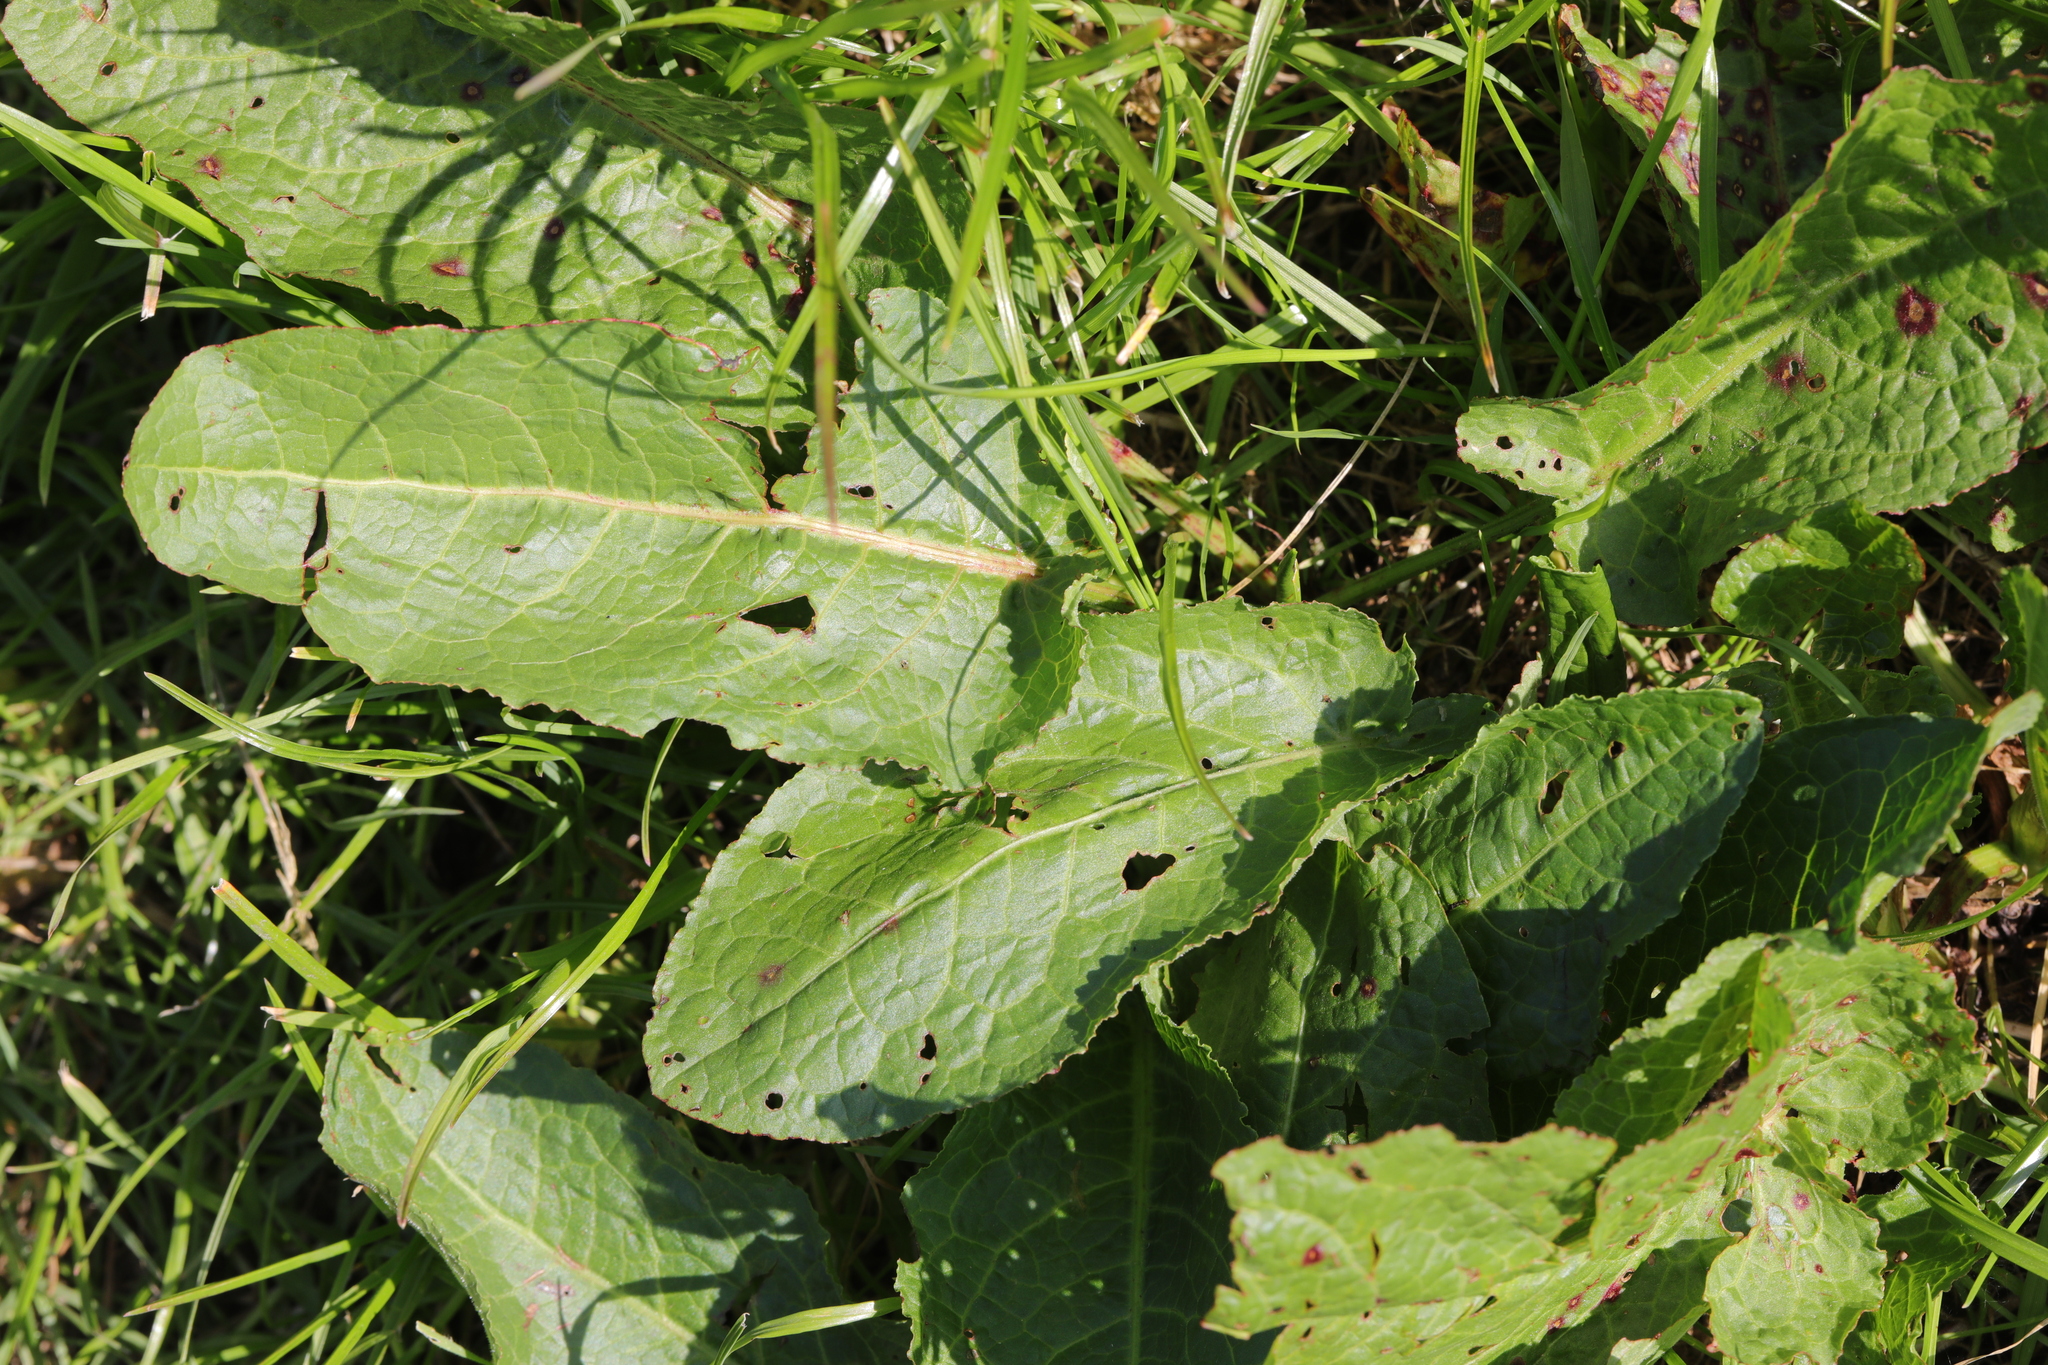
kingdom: Plantae
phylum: Tracheophyta
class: Magnoliopsida
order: Caryophyllales
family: Polygonaceae
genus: Rumex
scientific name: Rumex obtusifolius
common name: Bitter dock
